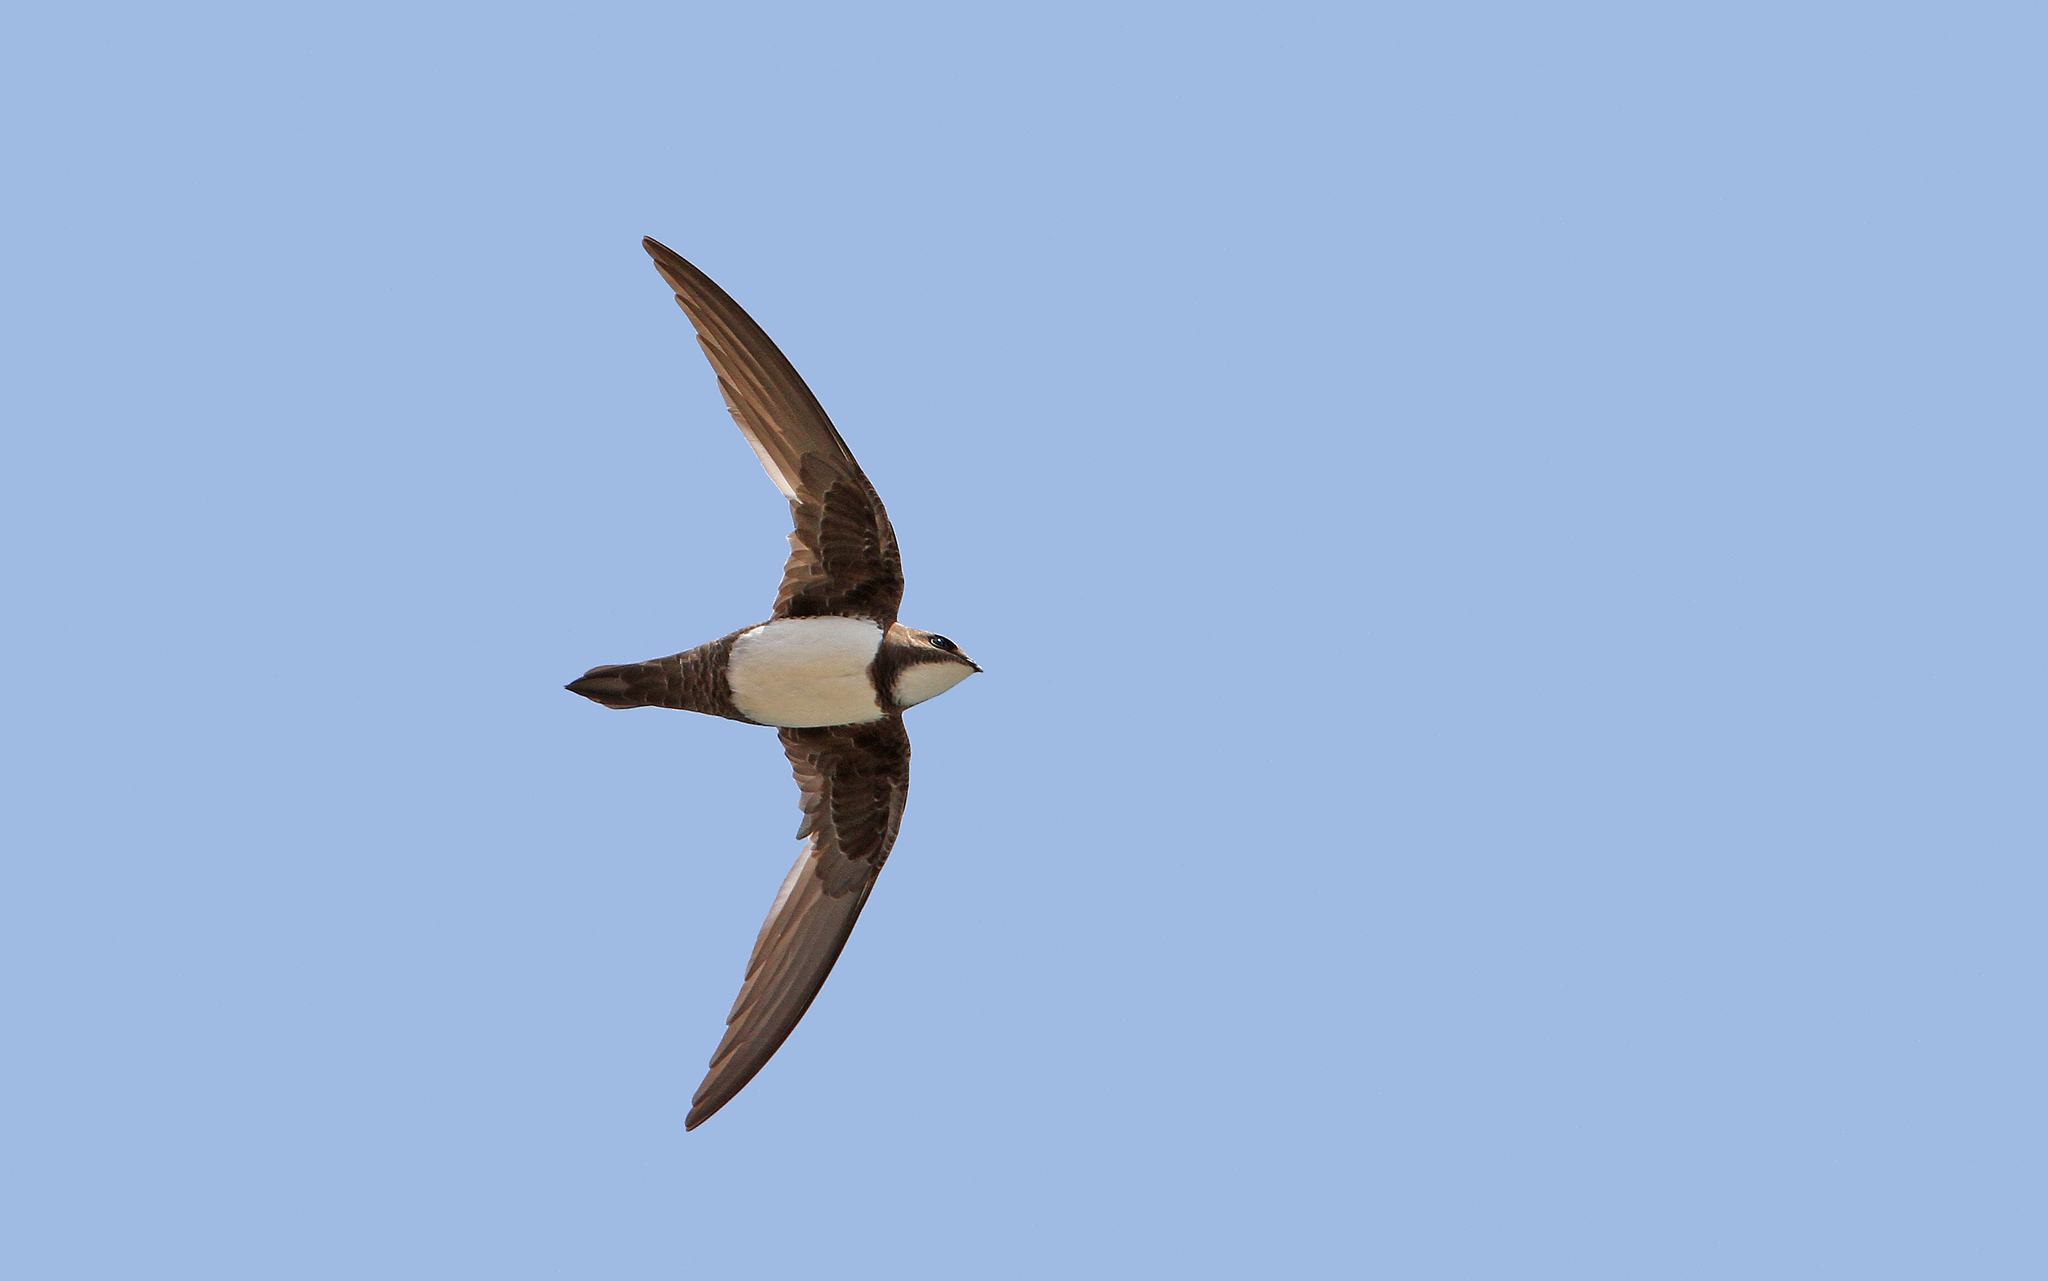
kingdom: Animalia
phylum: Chordata
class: Aves
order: Apodiformes
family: Apodidae
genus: Tachymarptis
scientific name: Tachymarptis melba
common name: Alpine swift
